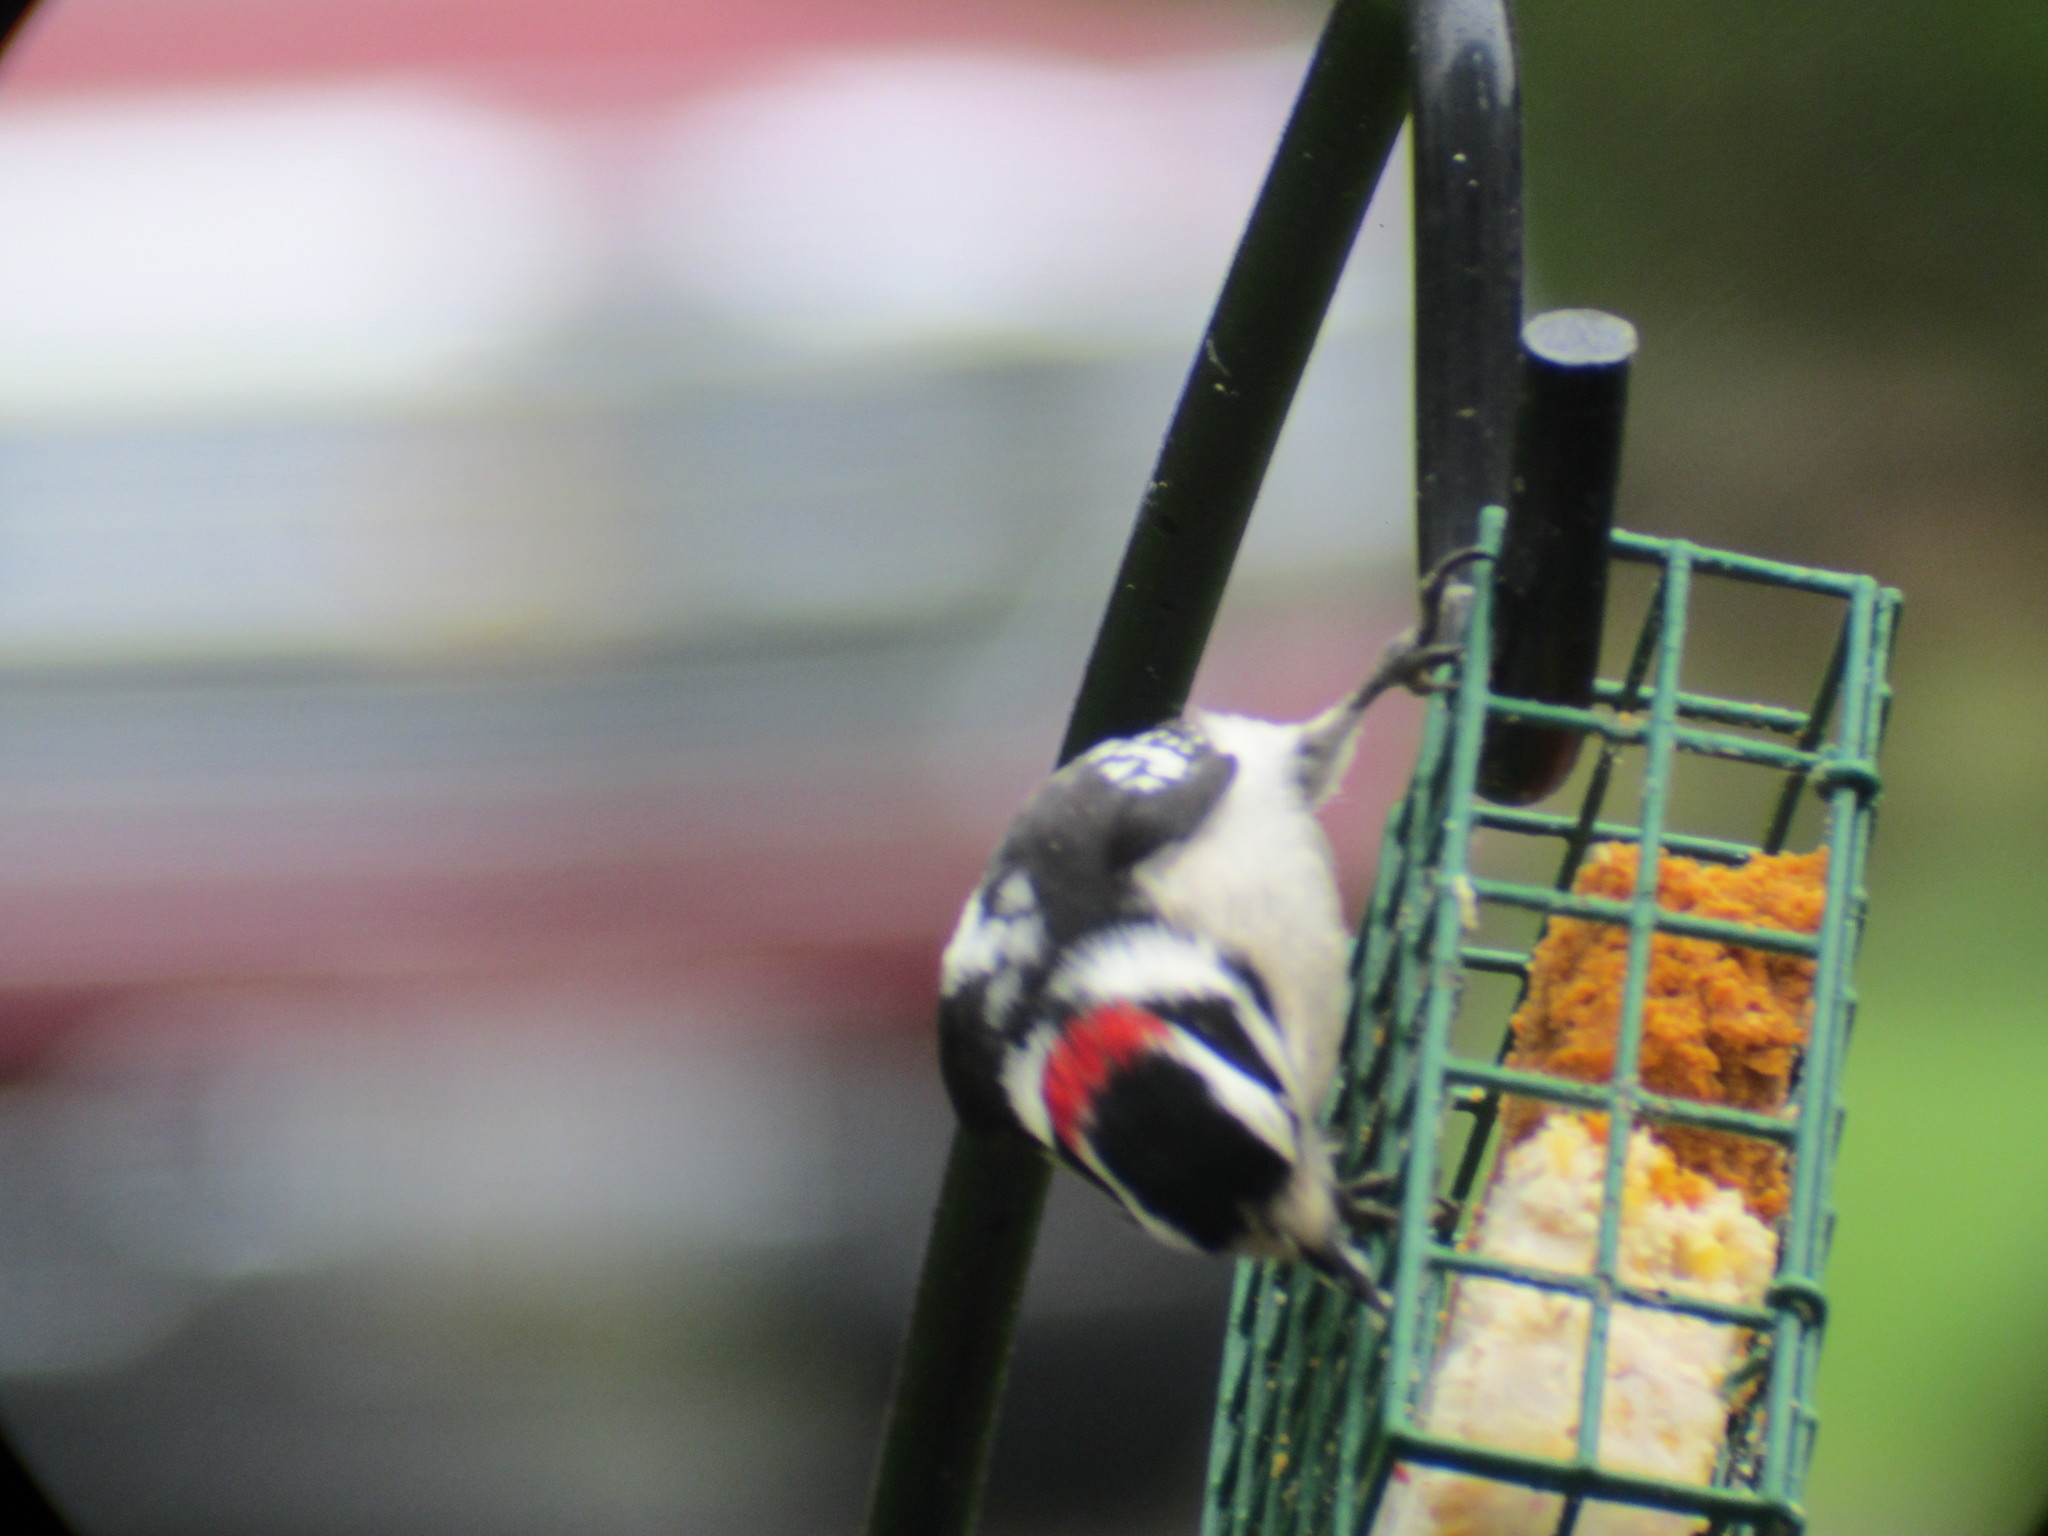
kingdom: Animalia
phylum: Chordata
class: Aves
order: Piciformes
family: Picidae
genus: Dryobates
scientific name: Dryobates pubescens
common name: Downy woodpecker
